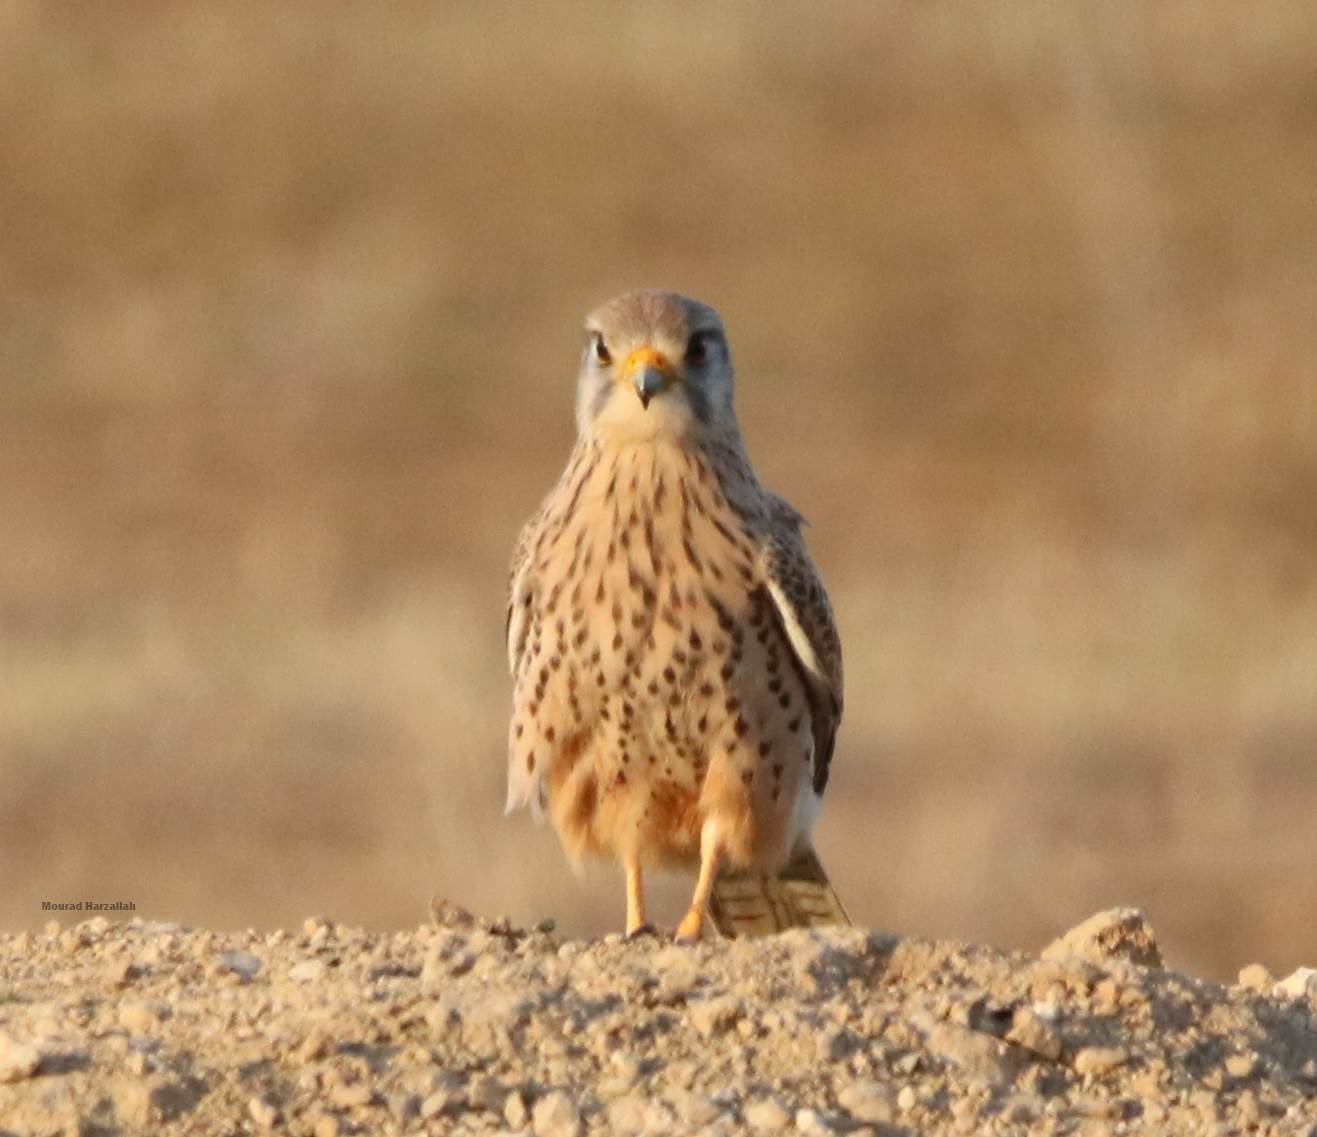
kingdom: Animalia
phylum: Chordata
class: Aves
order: Falconiformes
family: Falconidae
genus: Falco
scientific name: Falco tinnunculus
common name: Common kestrel
